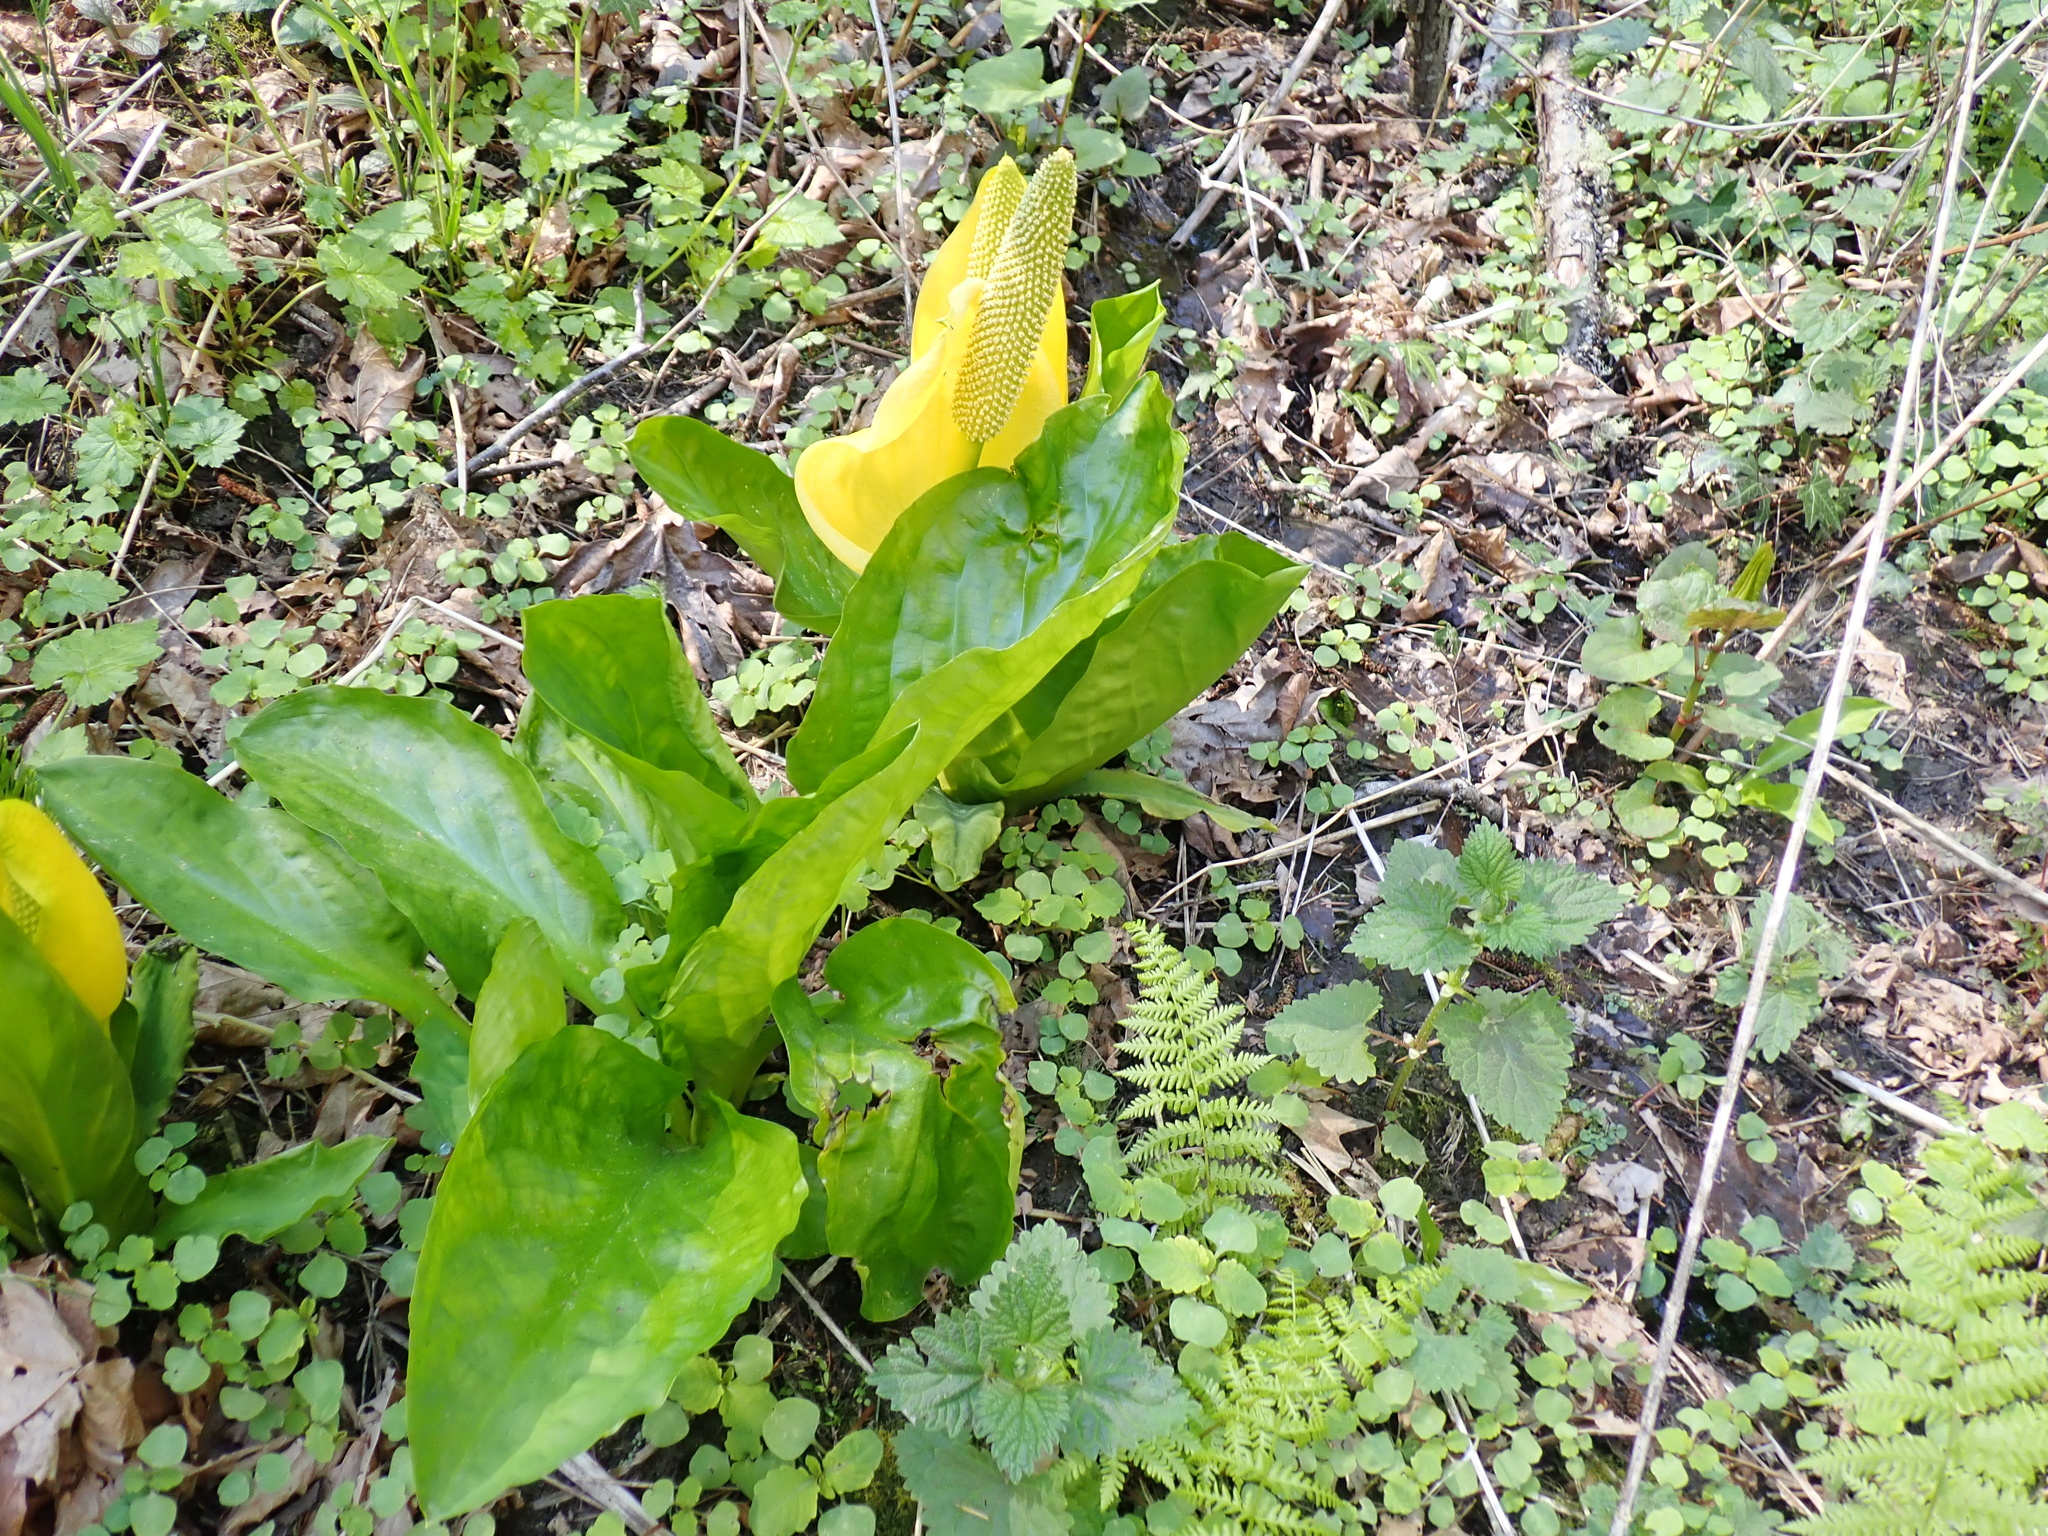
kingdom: Plantae
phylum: Tracheophyta
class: Liliopsida
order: Alismatales
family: Araceae
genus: Lysichiton
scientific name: Lysichiton americanus
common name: American skunk cabbage
